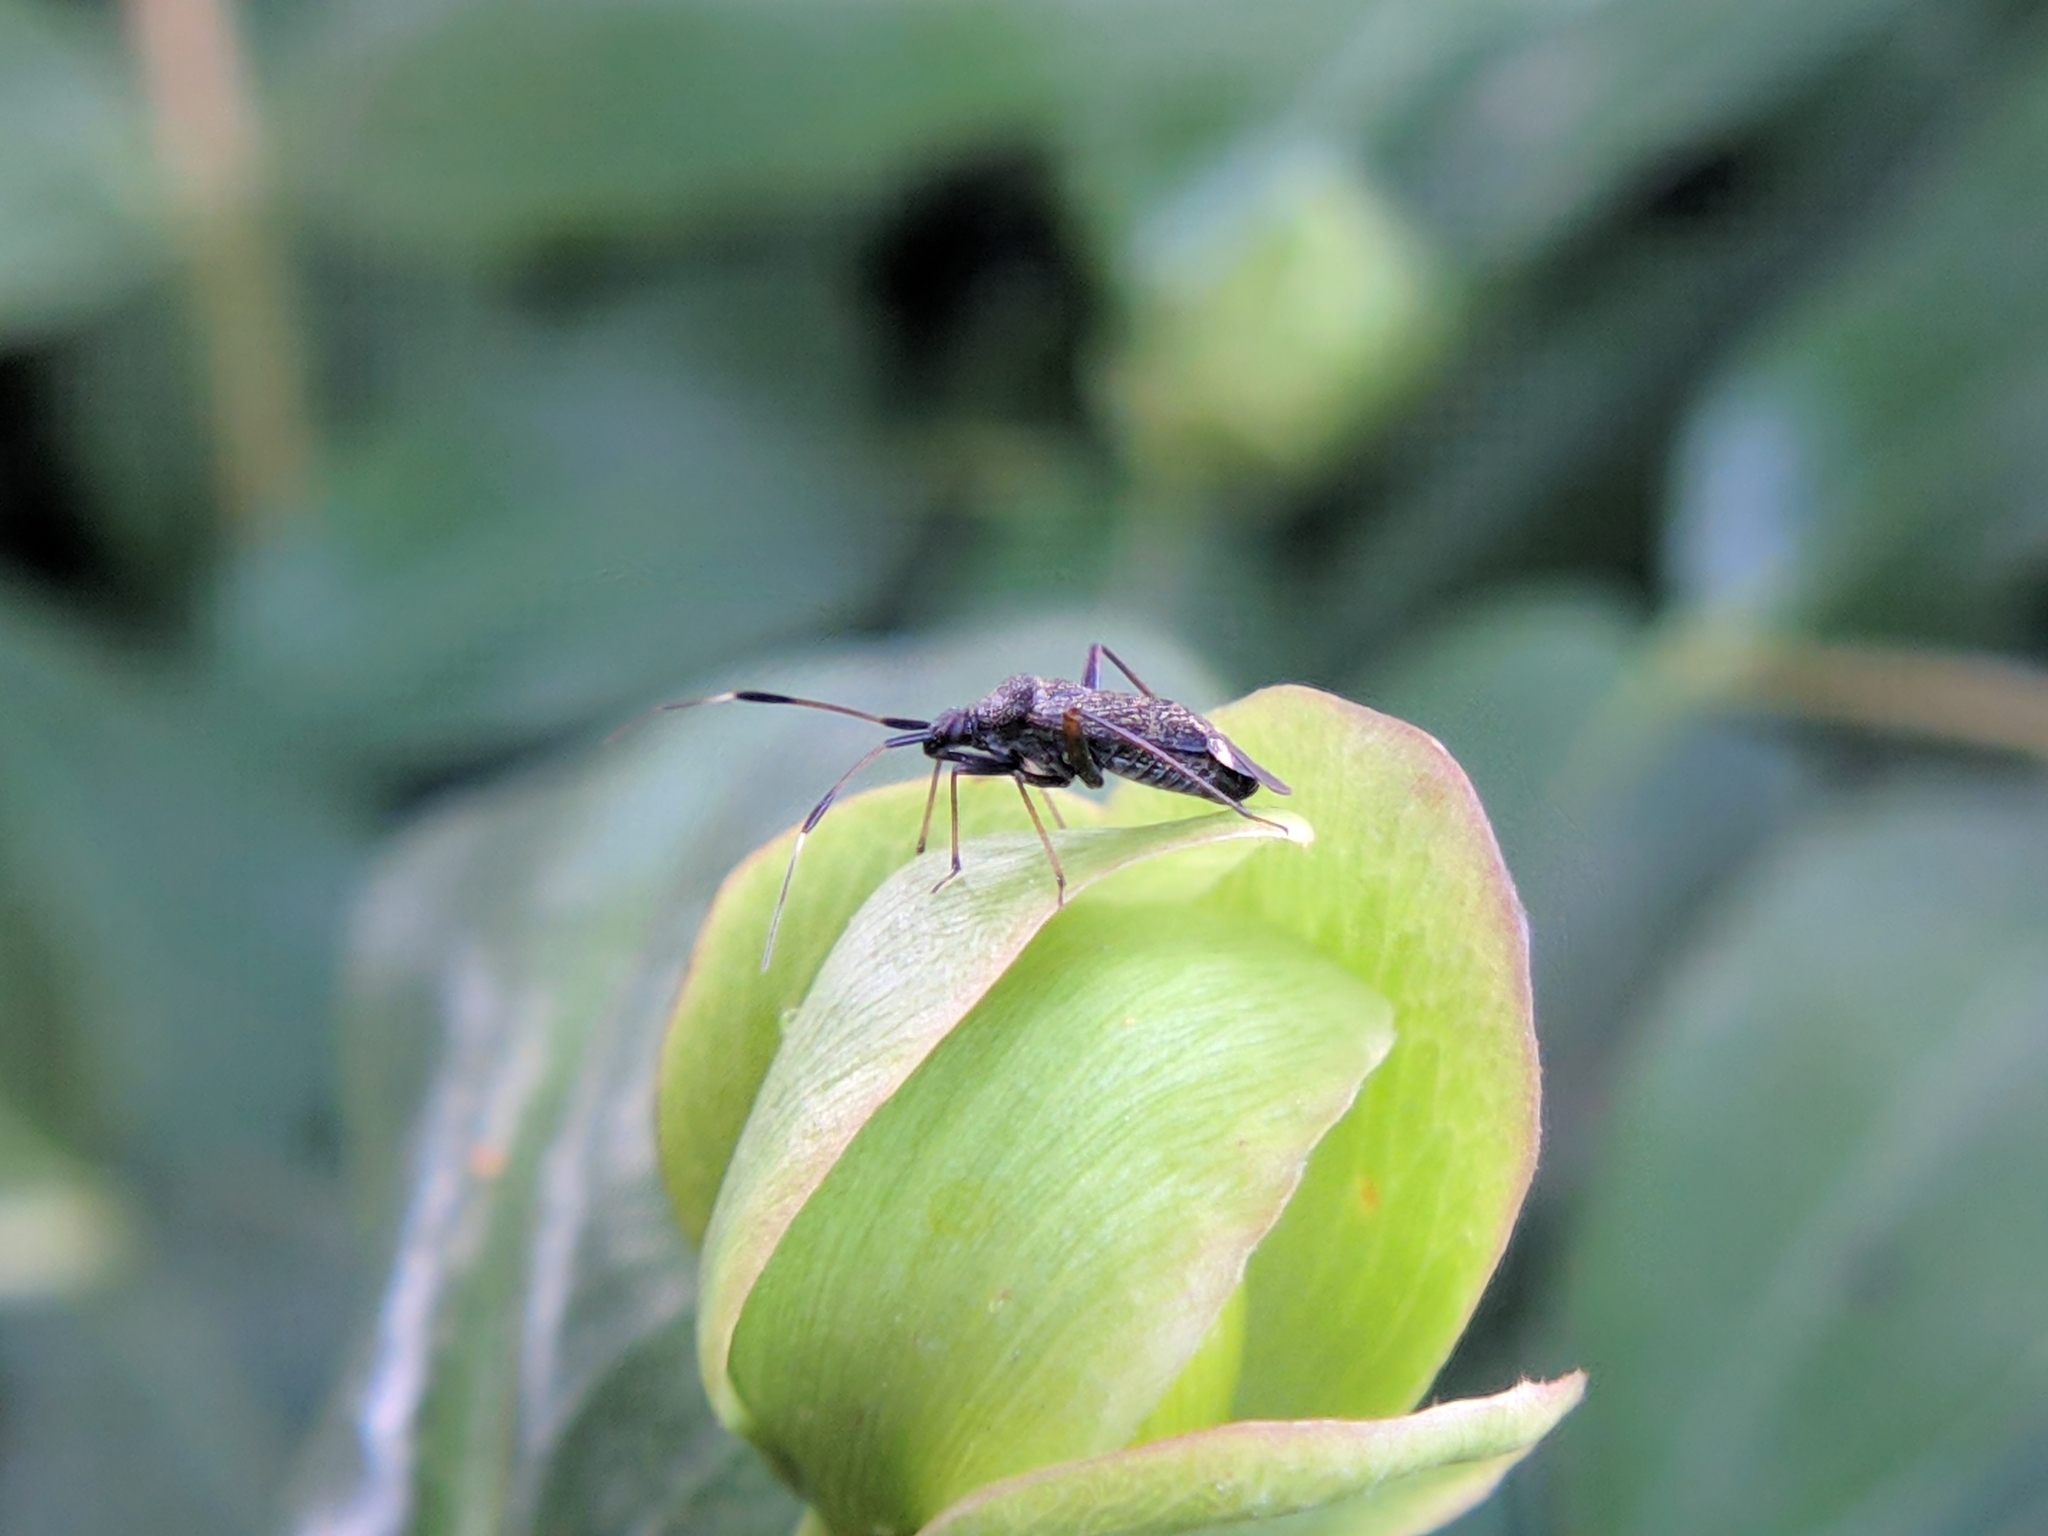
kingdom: Animalia
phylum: Arthropoda
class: Insecta
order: Hemiptera
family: Miridae
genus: Closterotomus
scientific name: Closterotomus biclavatus
